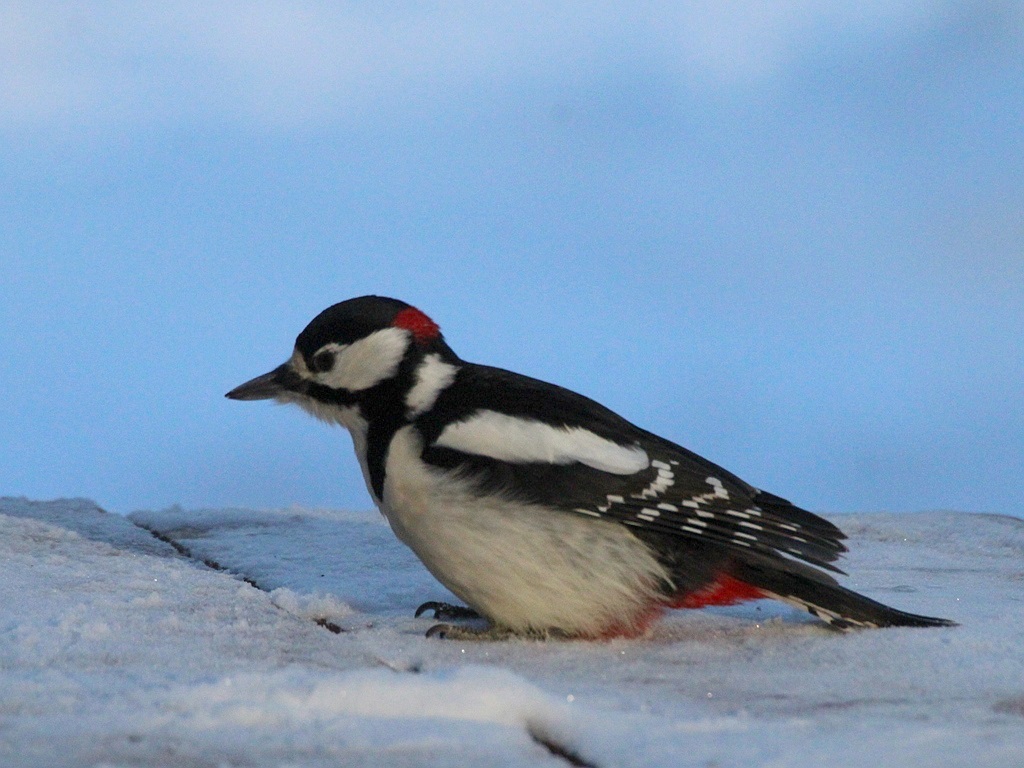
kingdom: Animalia
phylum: Chordata
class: Aves
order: Piciformes
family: Picidae
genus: Dendrocopos
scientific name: Dendrocopos major
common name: Great spotted woodpecker
